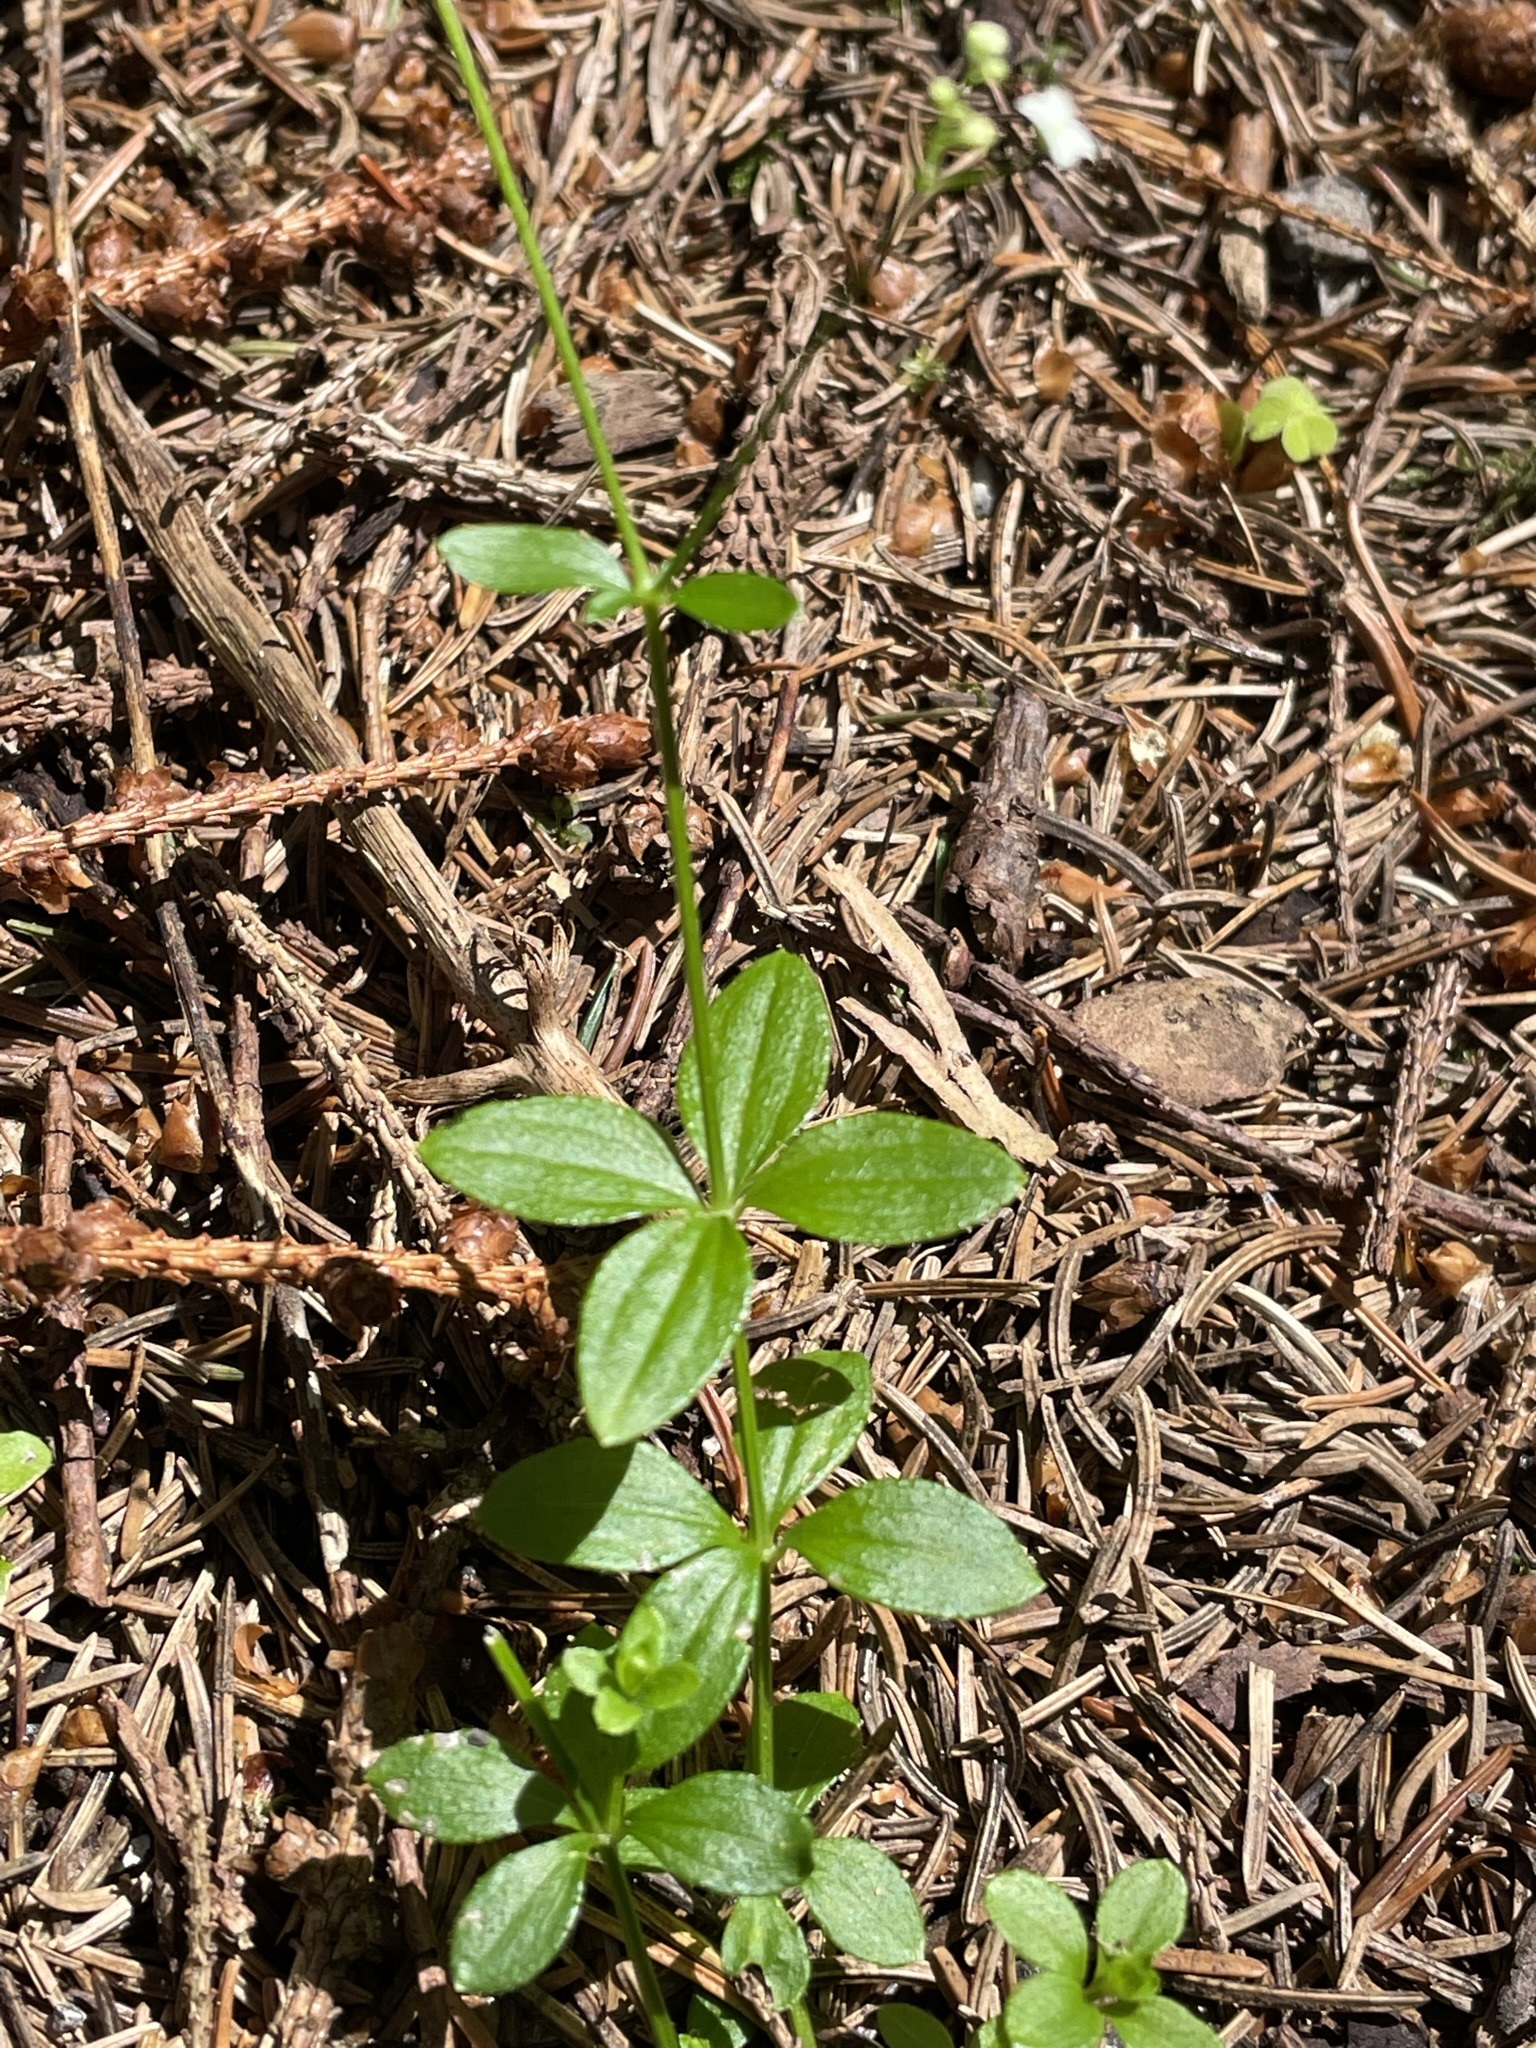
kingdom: Plantae
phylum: Tracheophyta
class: Magnoliopsida
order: Gentianales
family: Rubiaceae
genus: Galium
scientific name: Galium rotundifolium
